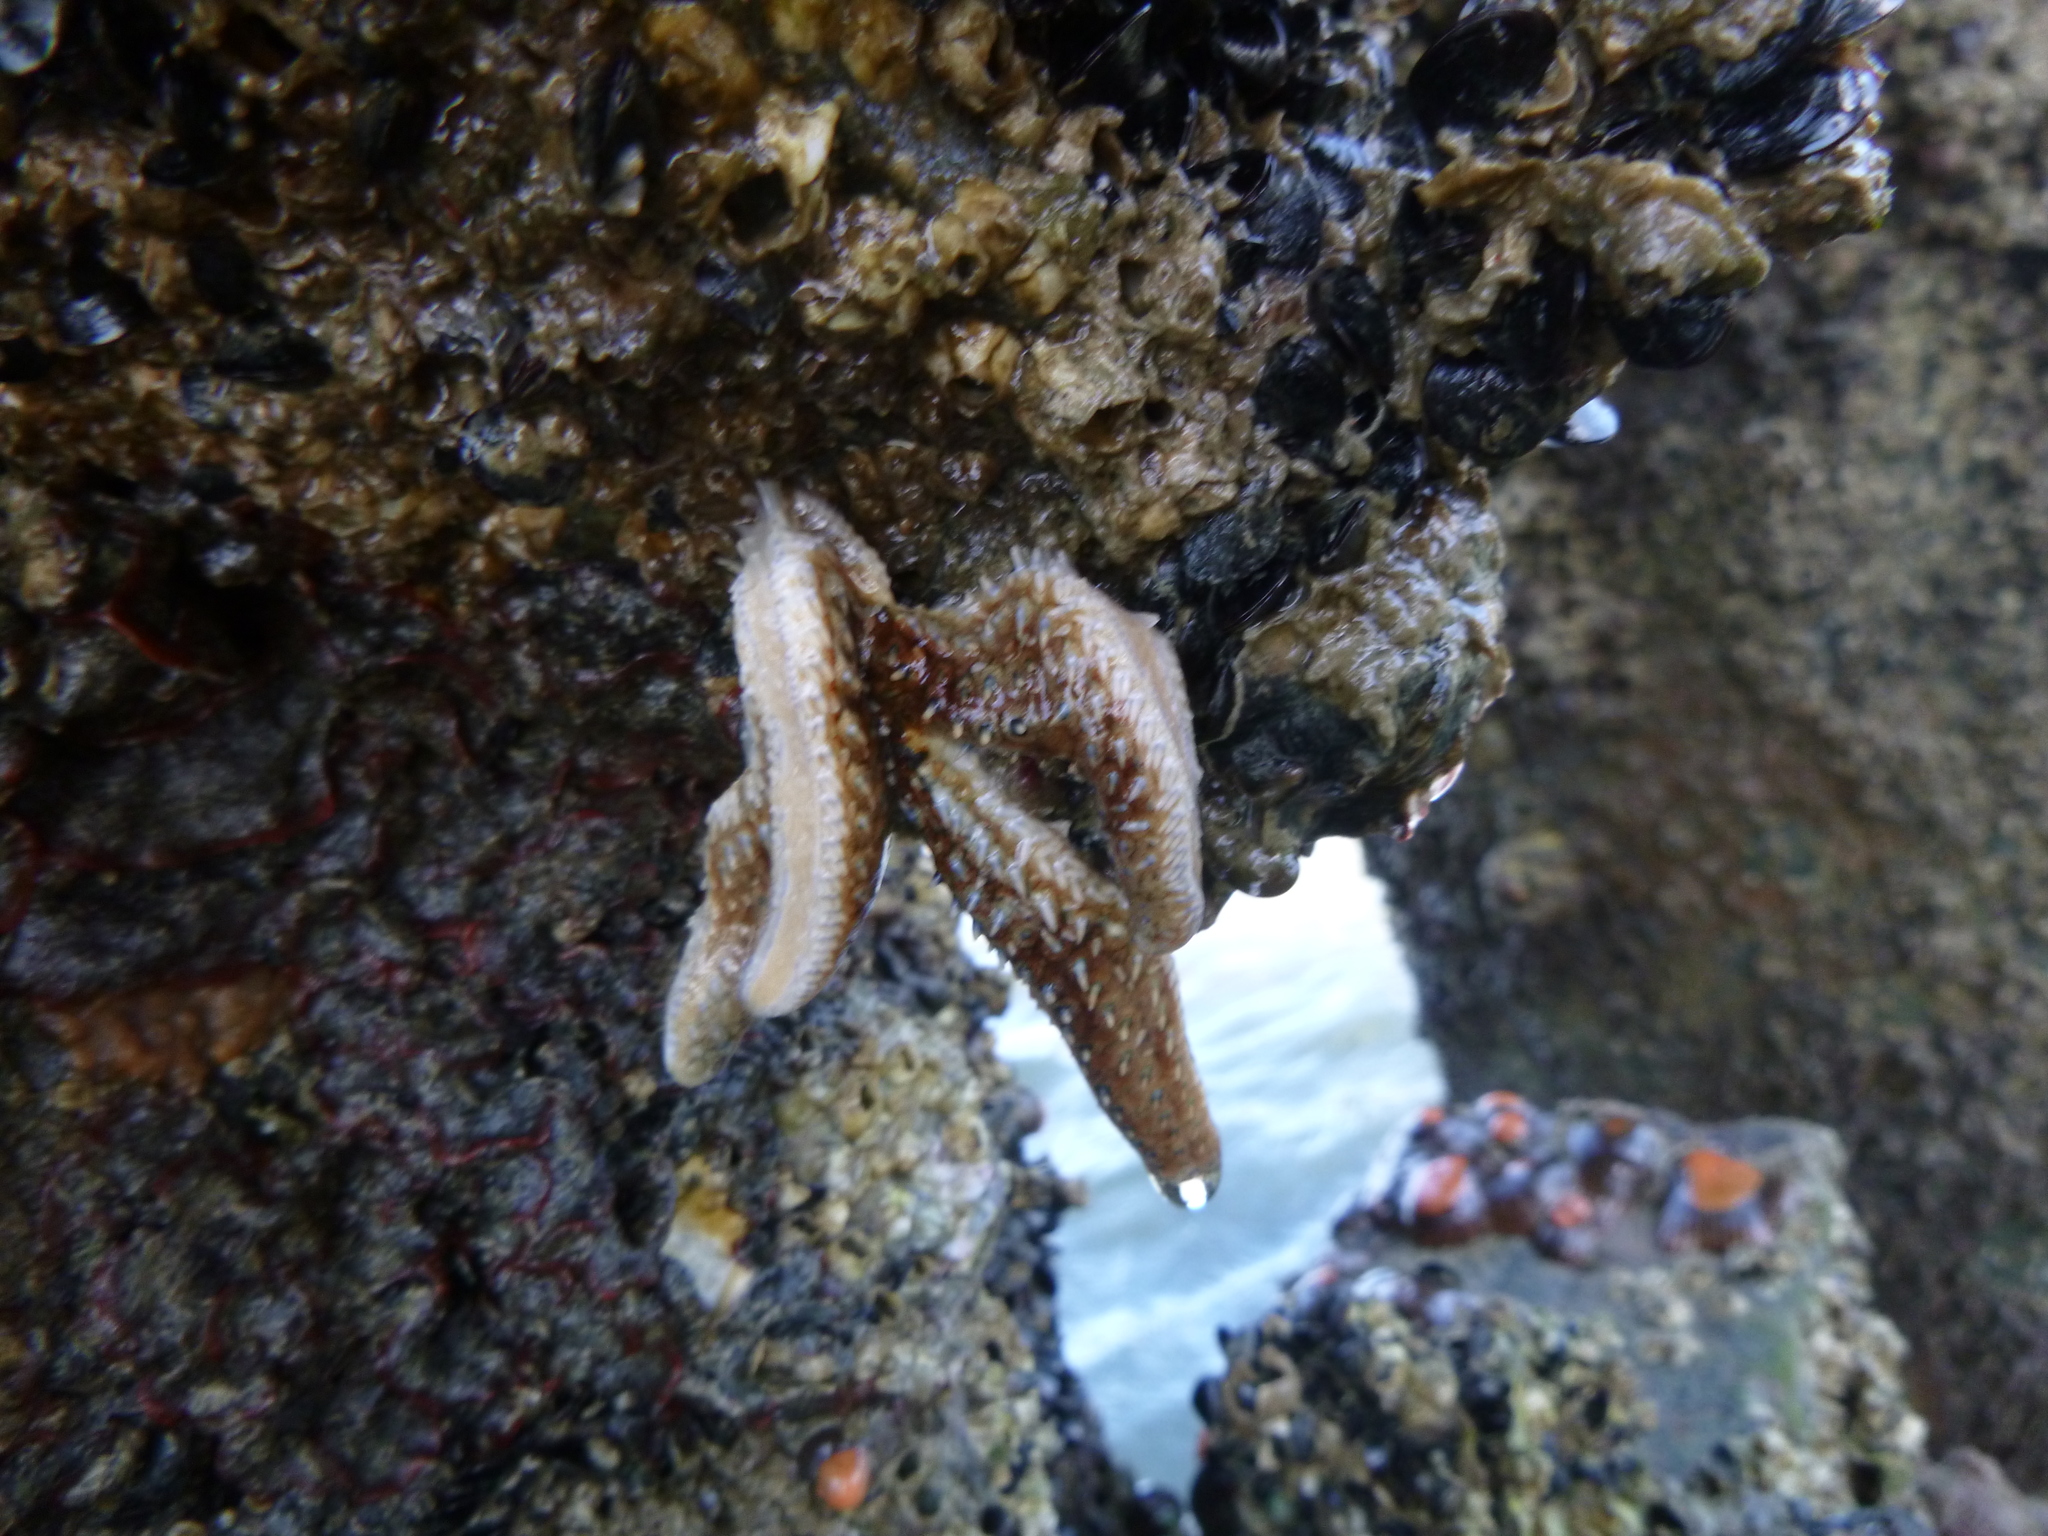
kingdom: Animalia
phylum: Echinodermata
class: Asteroidea
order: Forcipulatida
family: Asteriidae
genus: Coscinasterias
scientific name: Coscinasterias muricata
